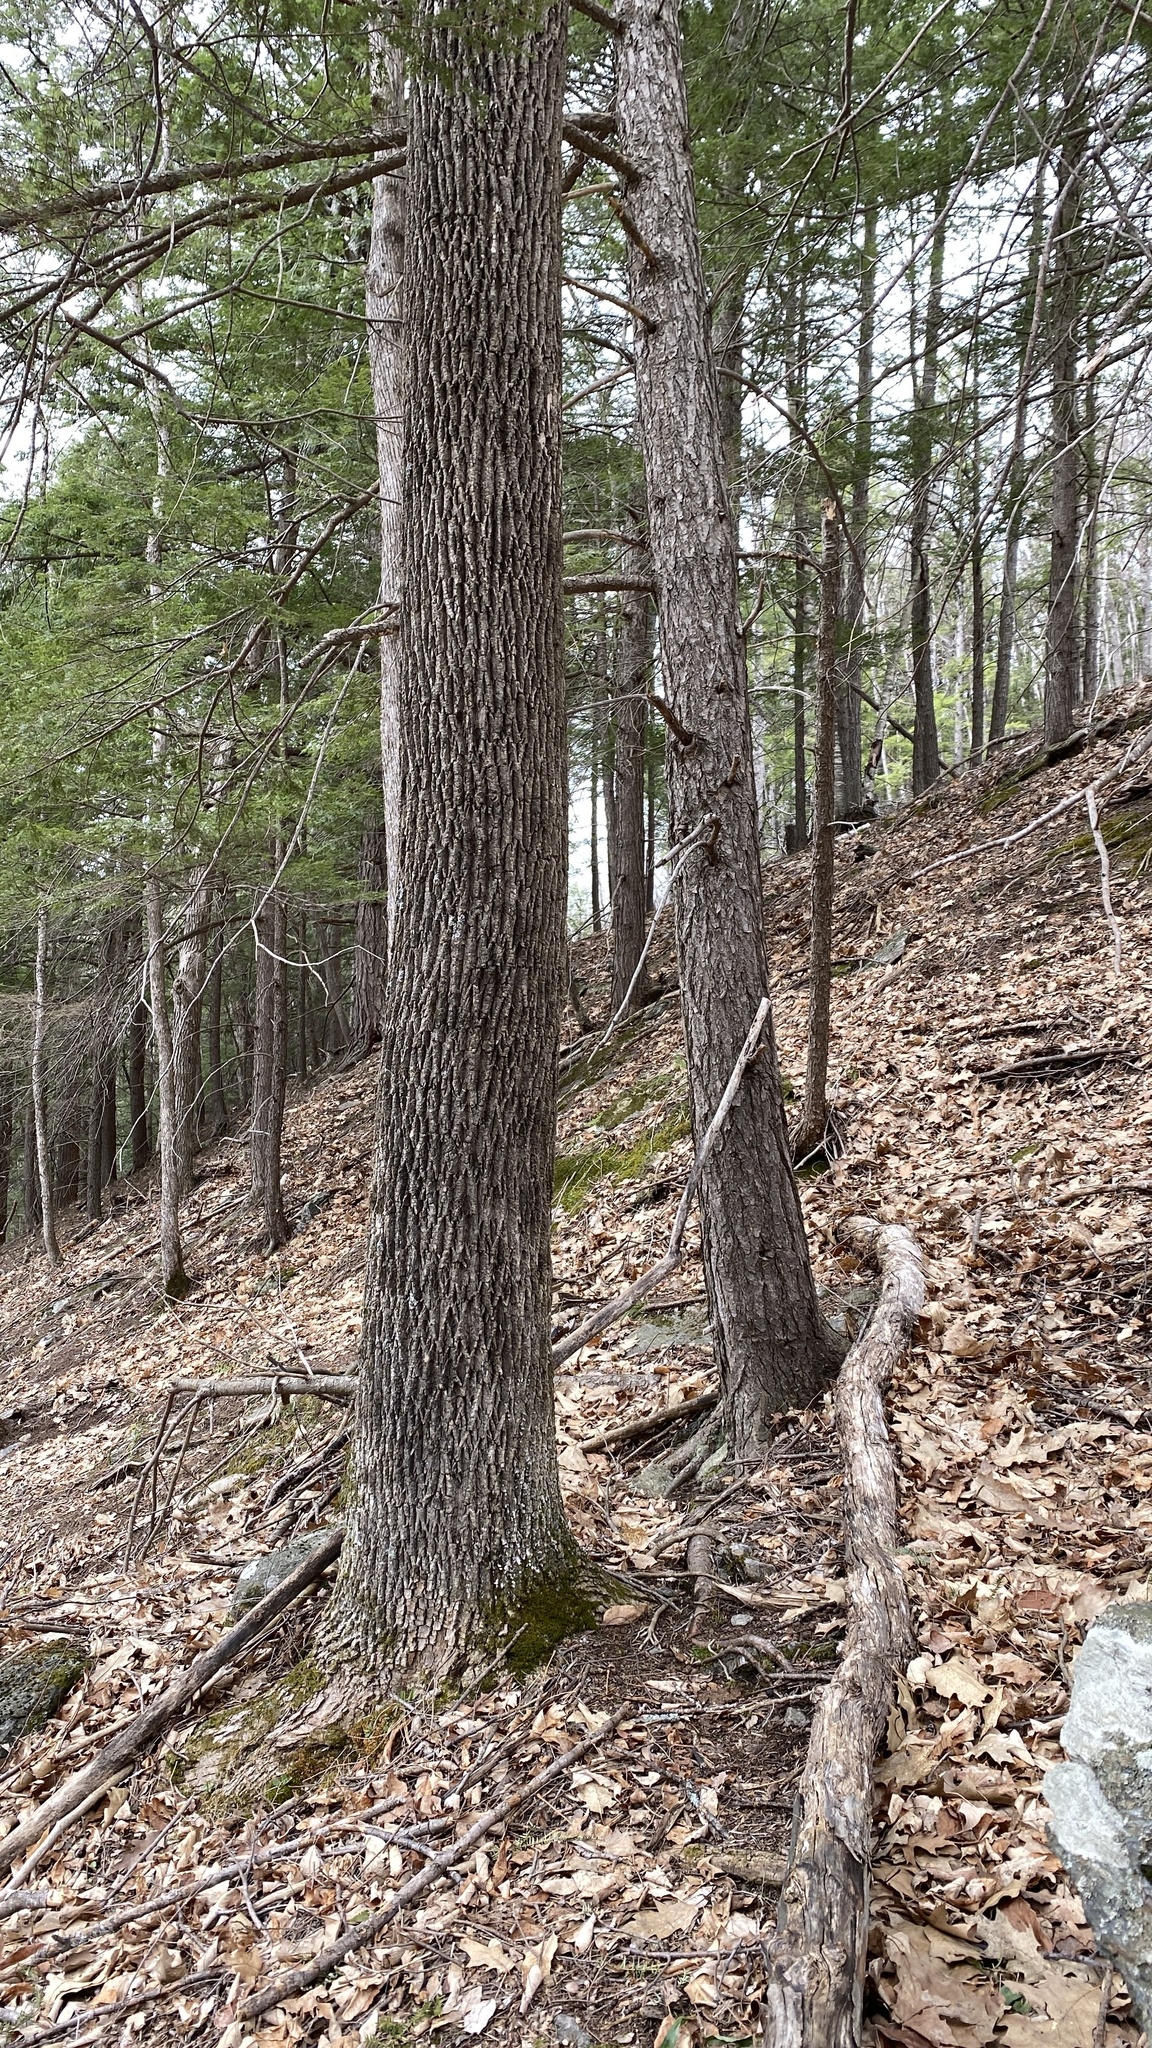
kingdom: Plantae
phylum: Tracheophyta
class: Magnoliopsida
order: Lamiales
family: Oleaceae
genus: Fraxinus
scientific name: Fraxinus americana
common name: White ash
